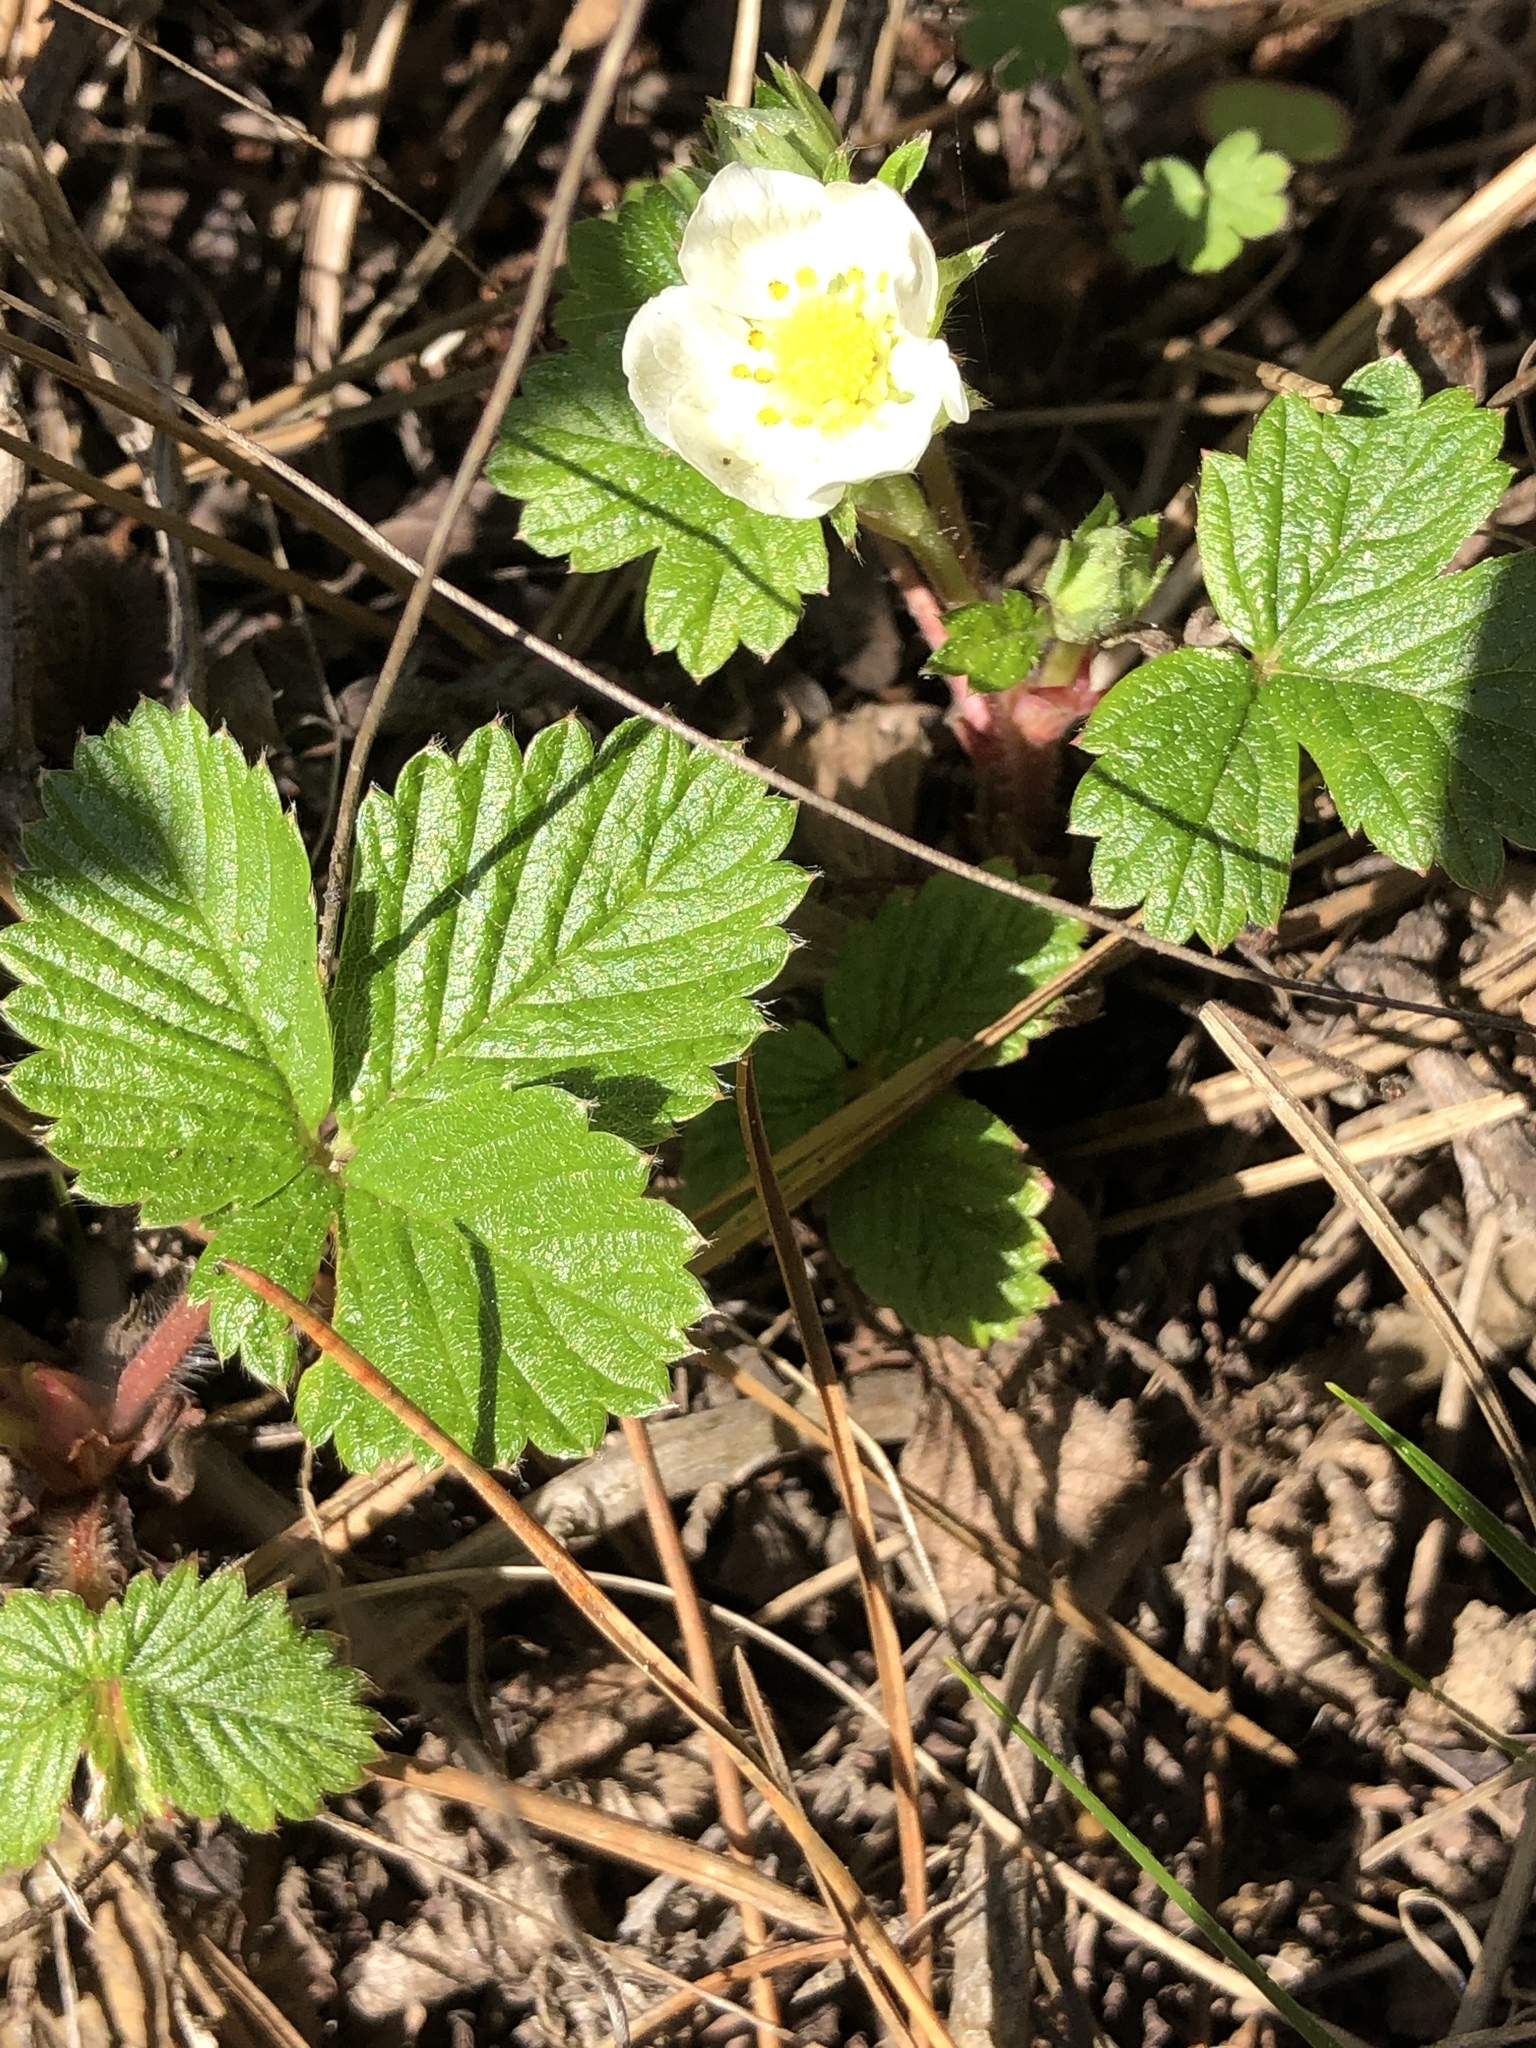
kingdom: Plantae
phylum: Tracheophyta
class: Magnoliopsida
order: Rosales
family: Rosaceae
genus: Fragaria
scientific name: Fragaria vesca
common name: Wild strawberry
